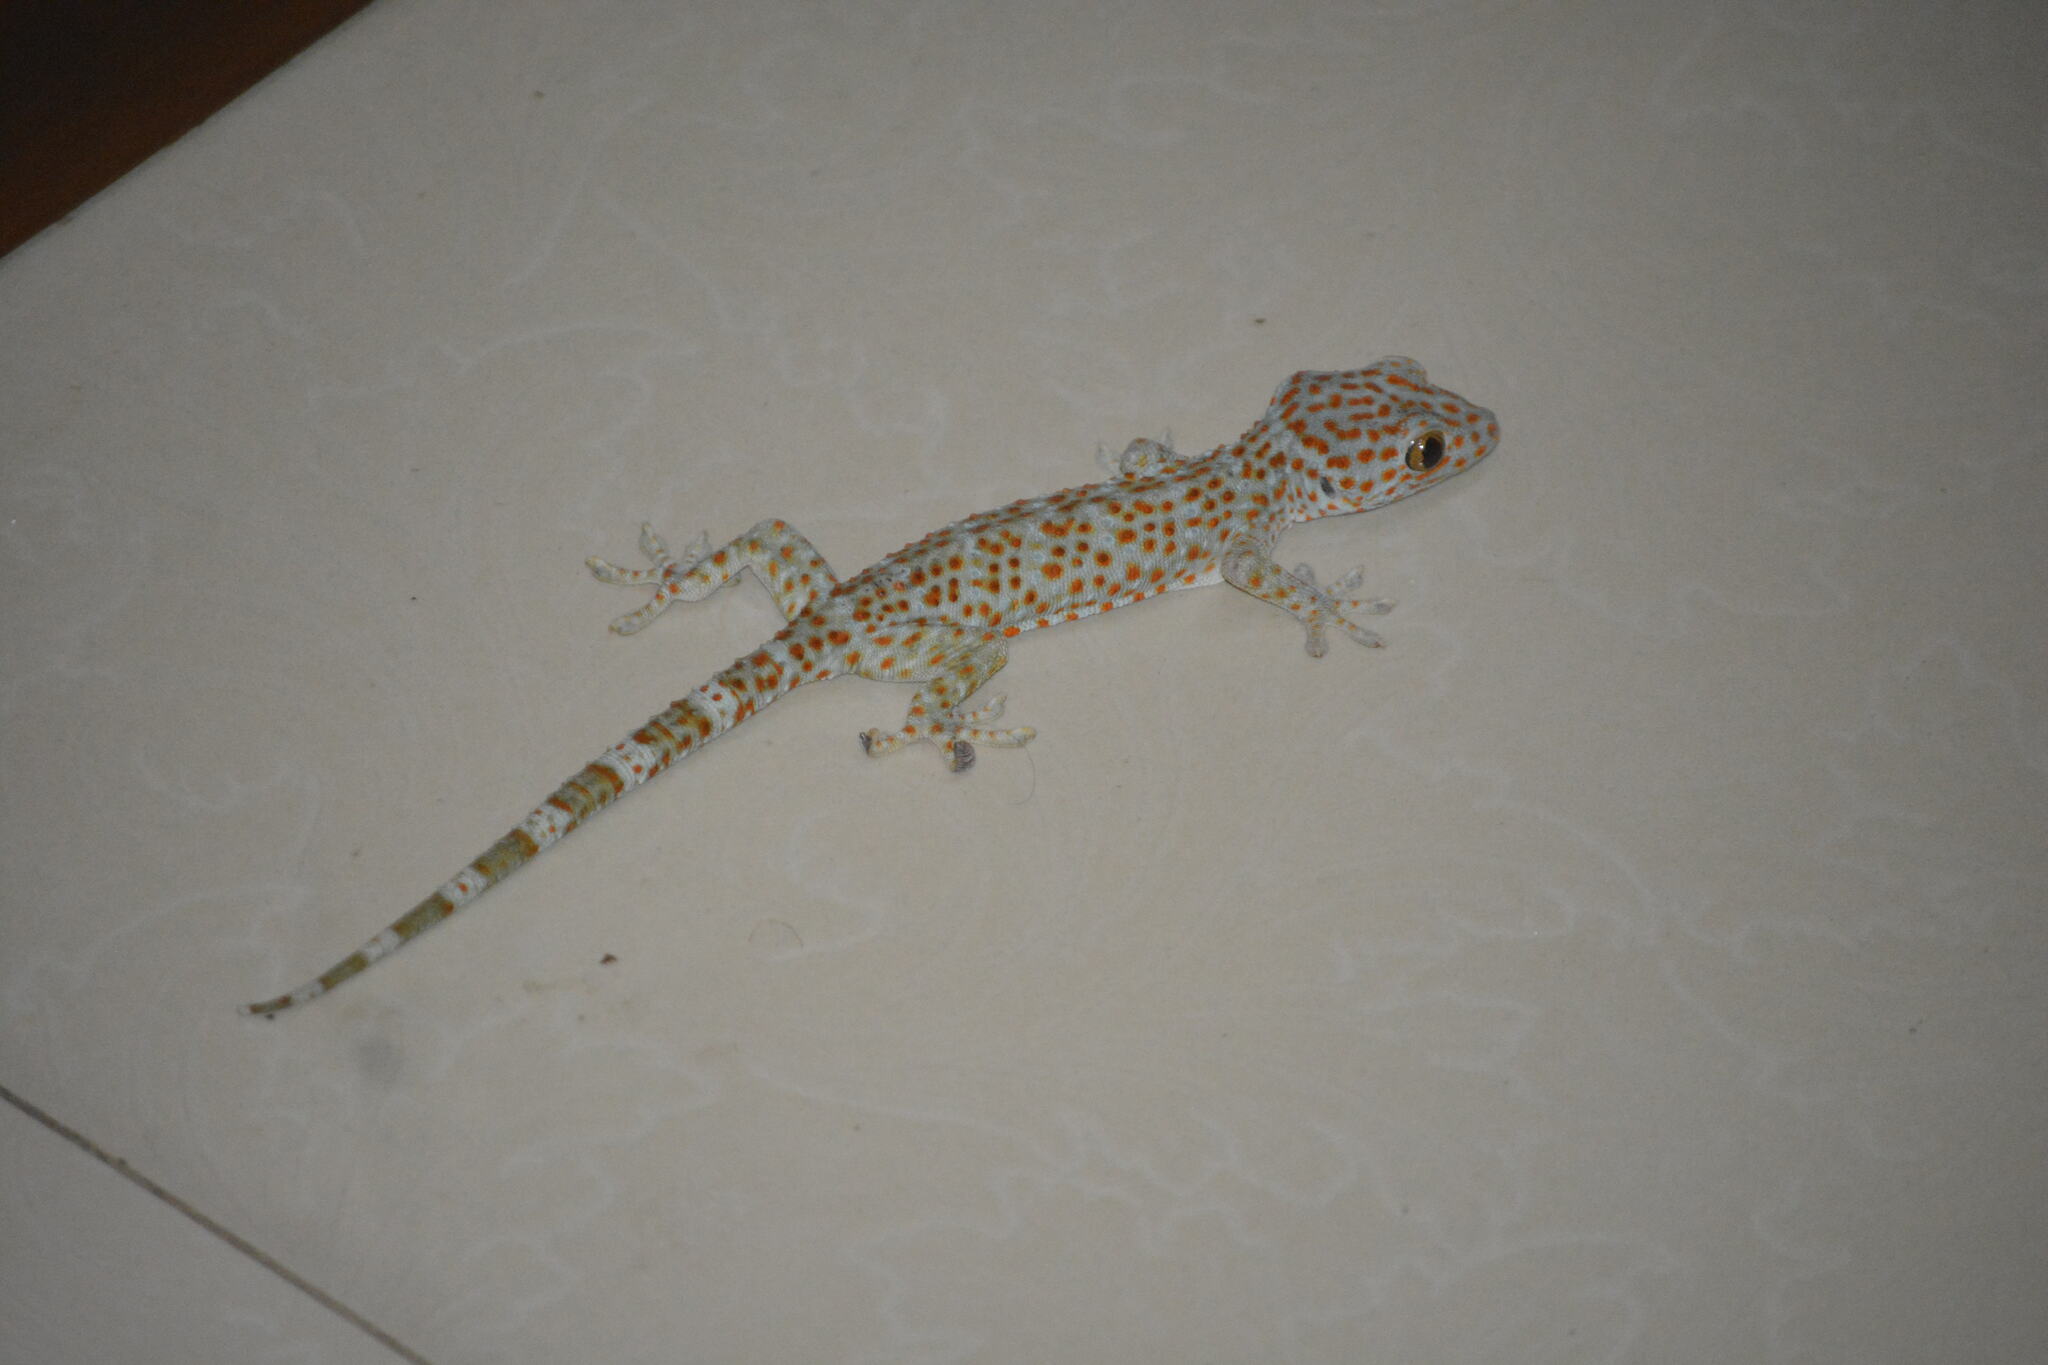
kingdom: Animalia
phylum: Chordata
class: Squamata
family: Gekkonidae
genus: Gekko
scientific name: Gekko gecko
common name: Tokay gecko
